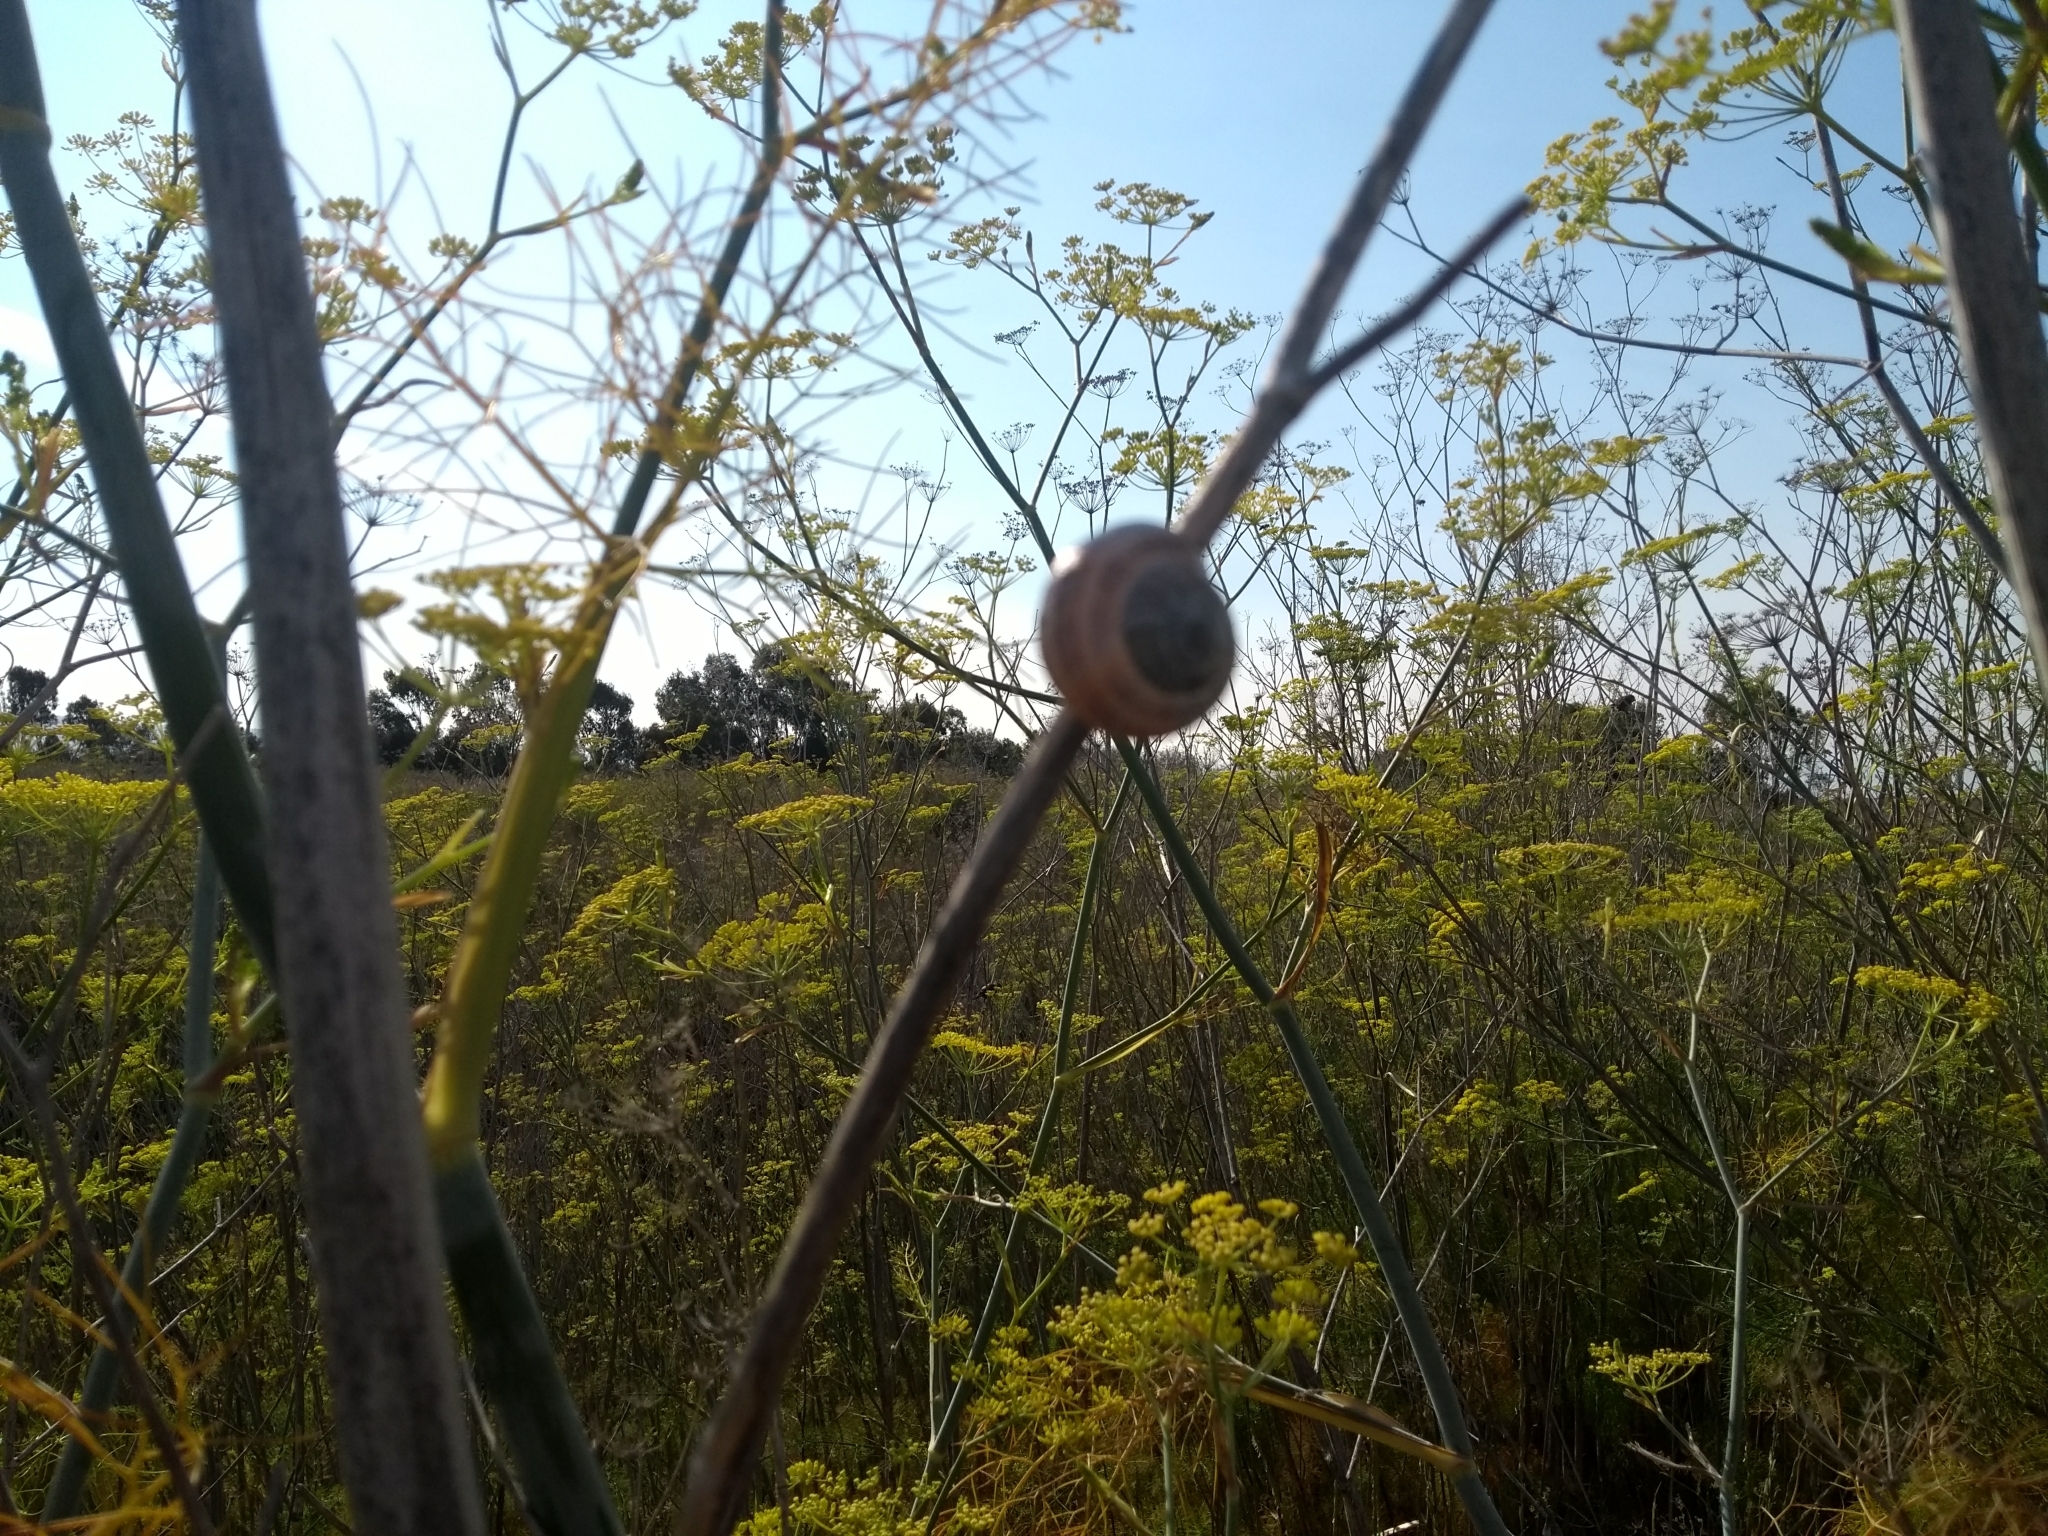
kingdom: Animalia
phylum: Mollusca
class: Gastropoda
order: Stylommatophora
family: Helicidae
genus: Otala
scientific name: Otala lactea
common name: Milk snail
